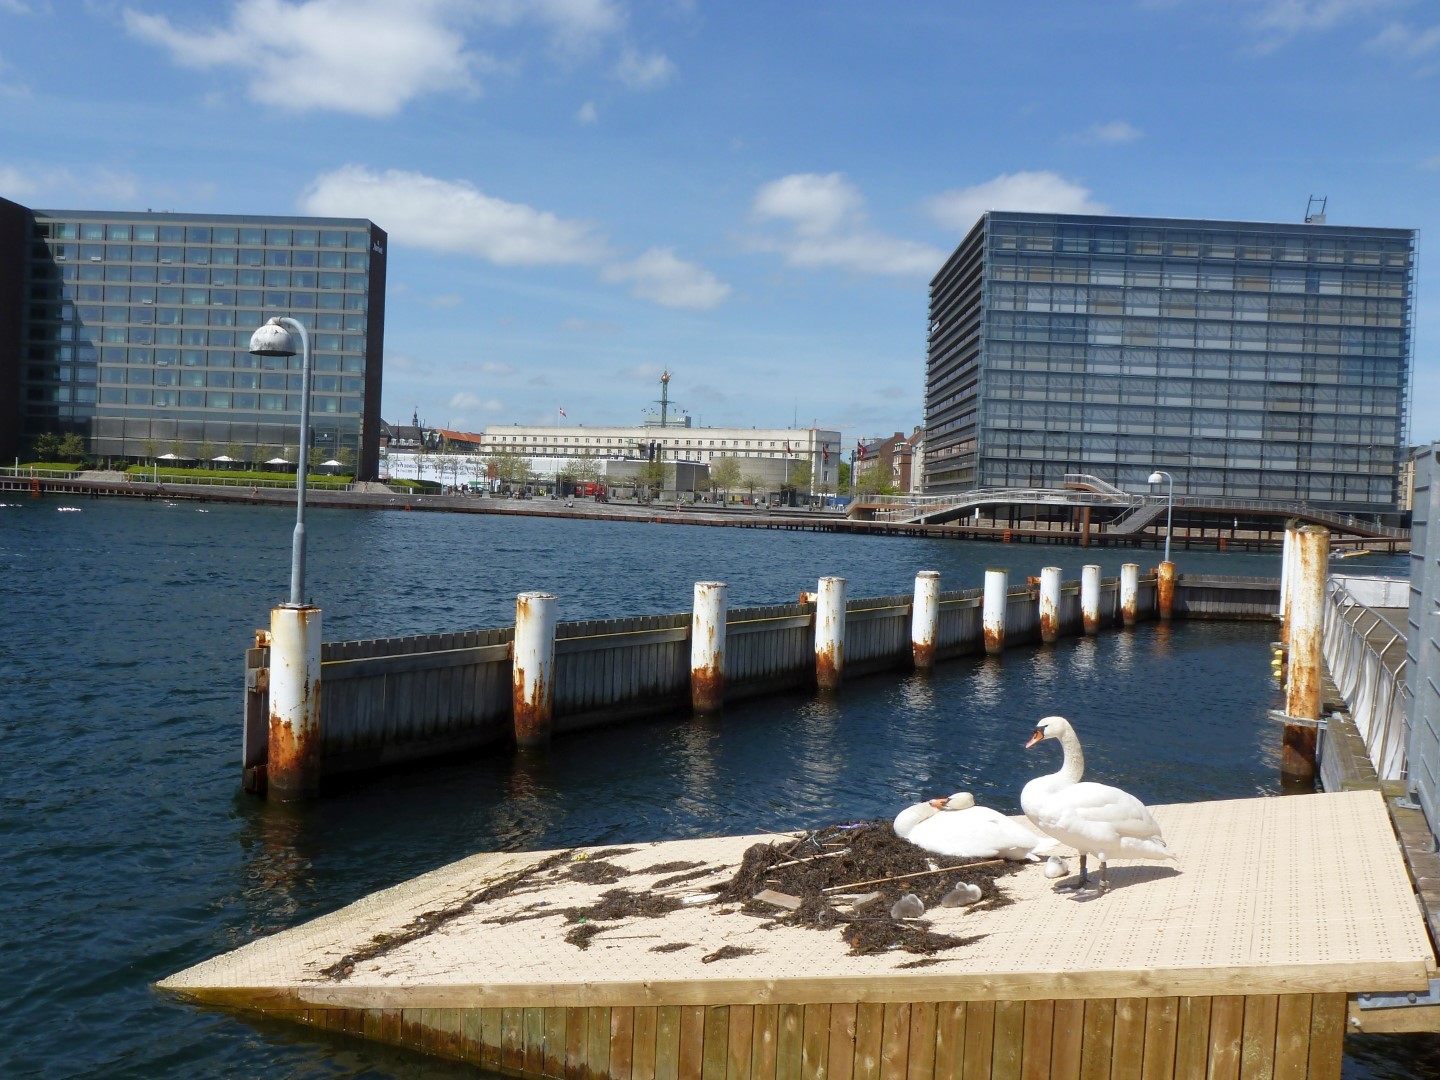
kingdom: Animalia
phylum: Chordata
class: Aves
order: Anseriformes
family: Anatidae
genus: Cygnus
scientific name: Cygnus olor
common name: Mute swan
